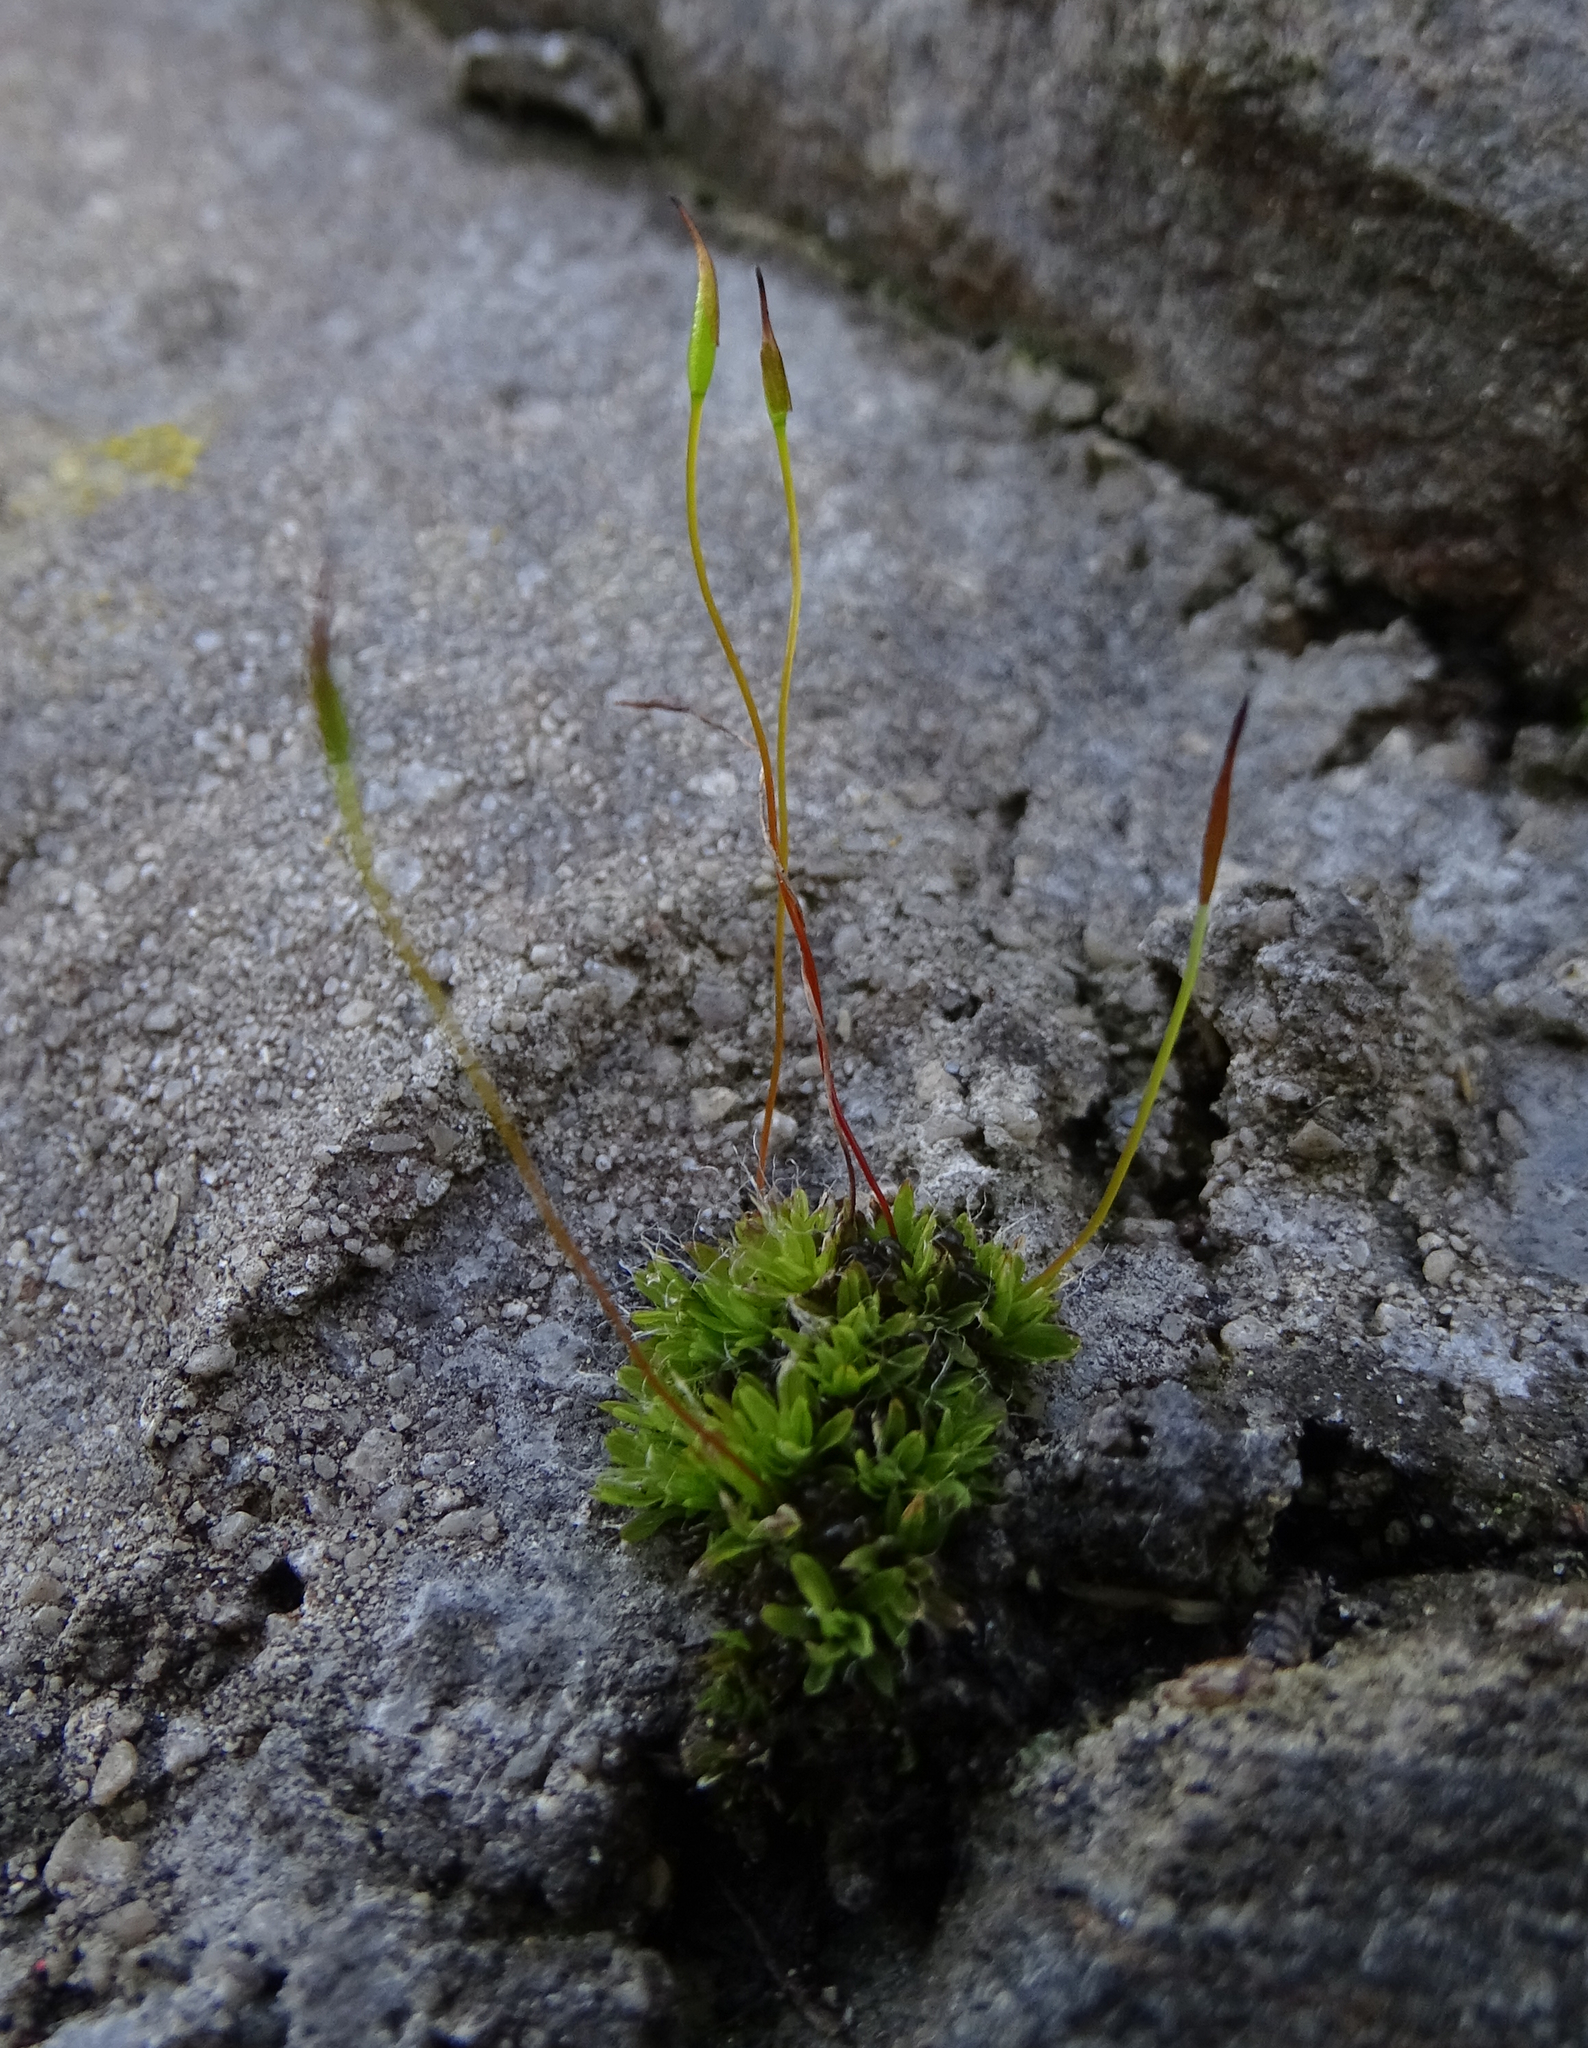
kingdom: Plantae
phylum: Bryophyta
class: Bryopsida
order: Pottiales
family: Pottiaceae
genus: Tortula
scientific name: Tortula muralis
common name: Wall screw-moss
